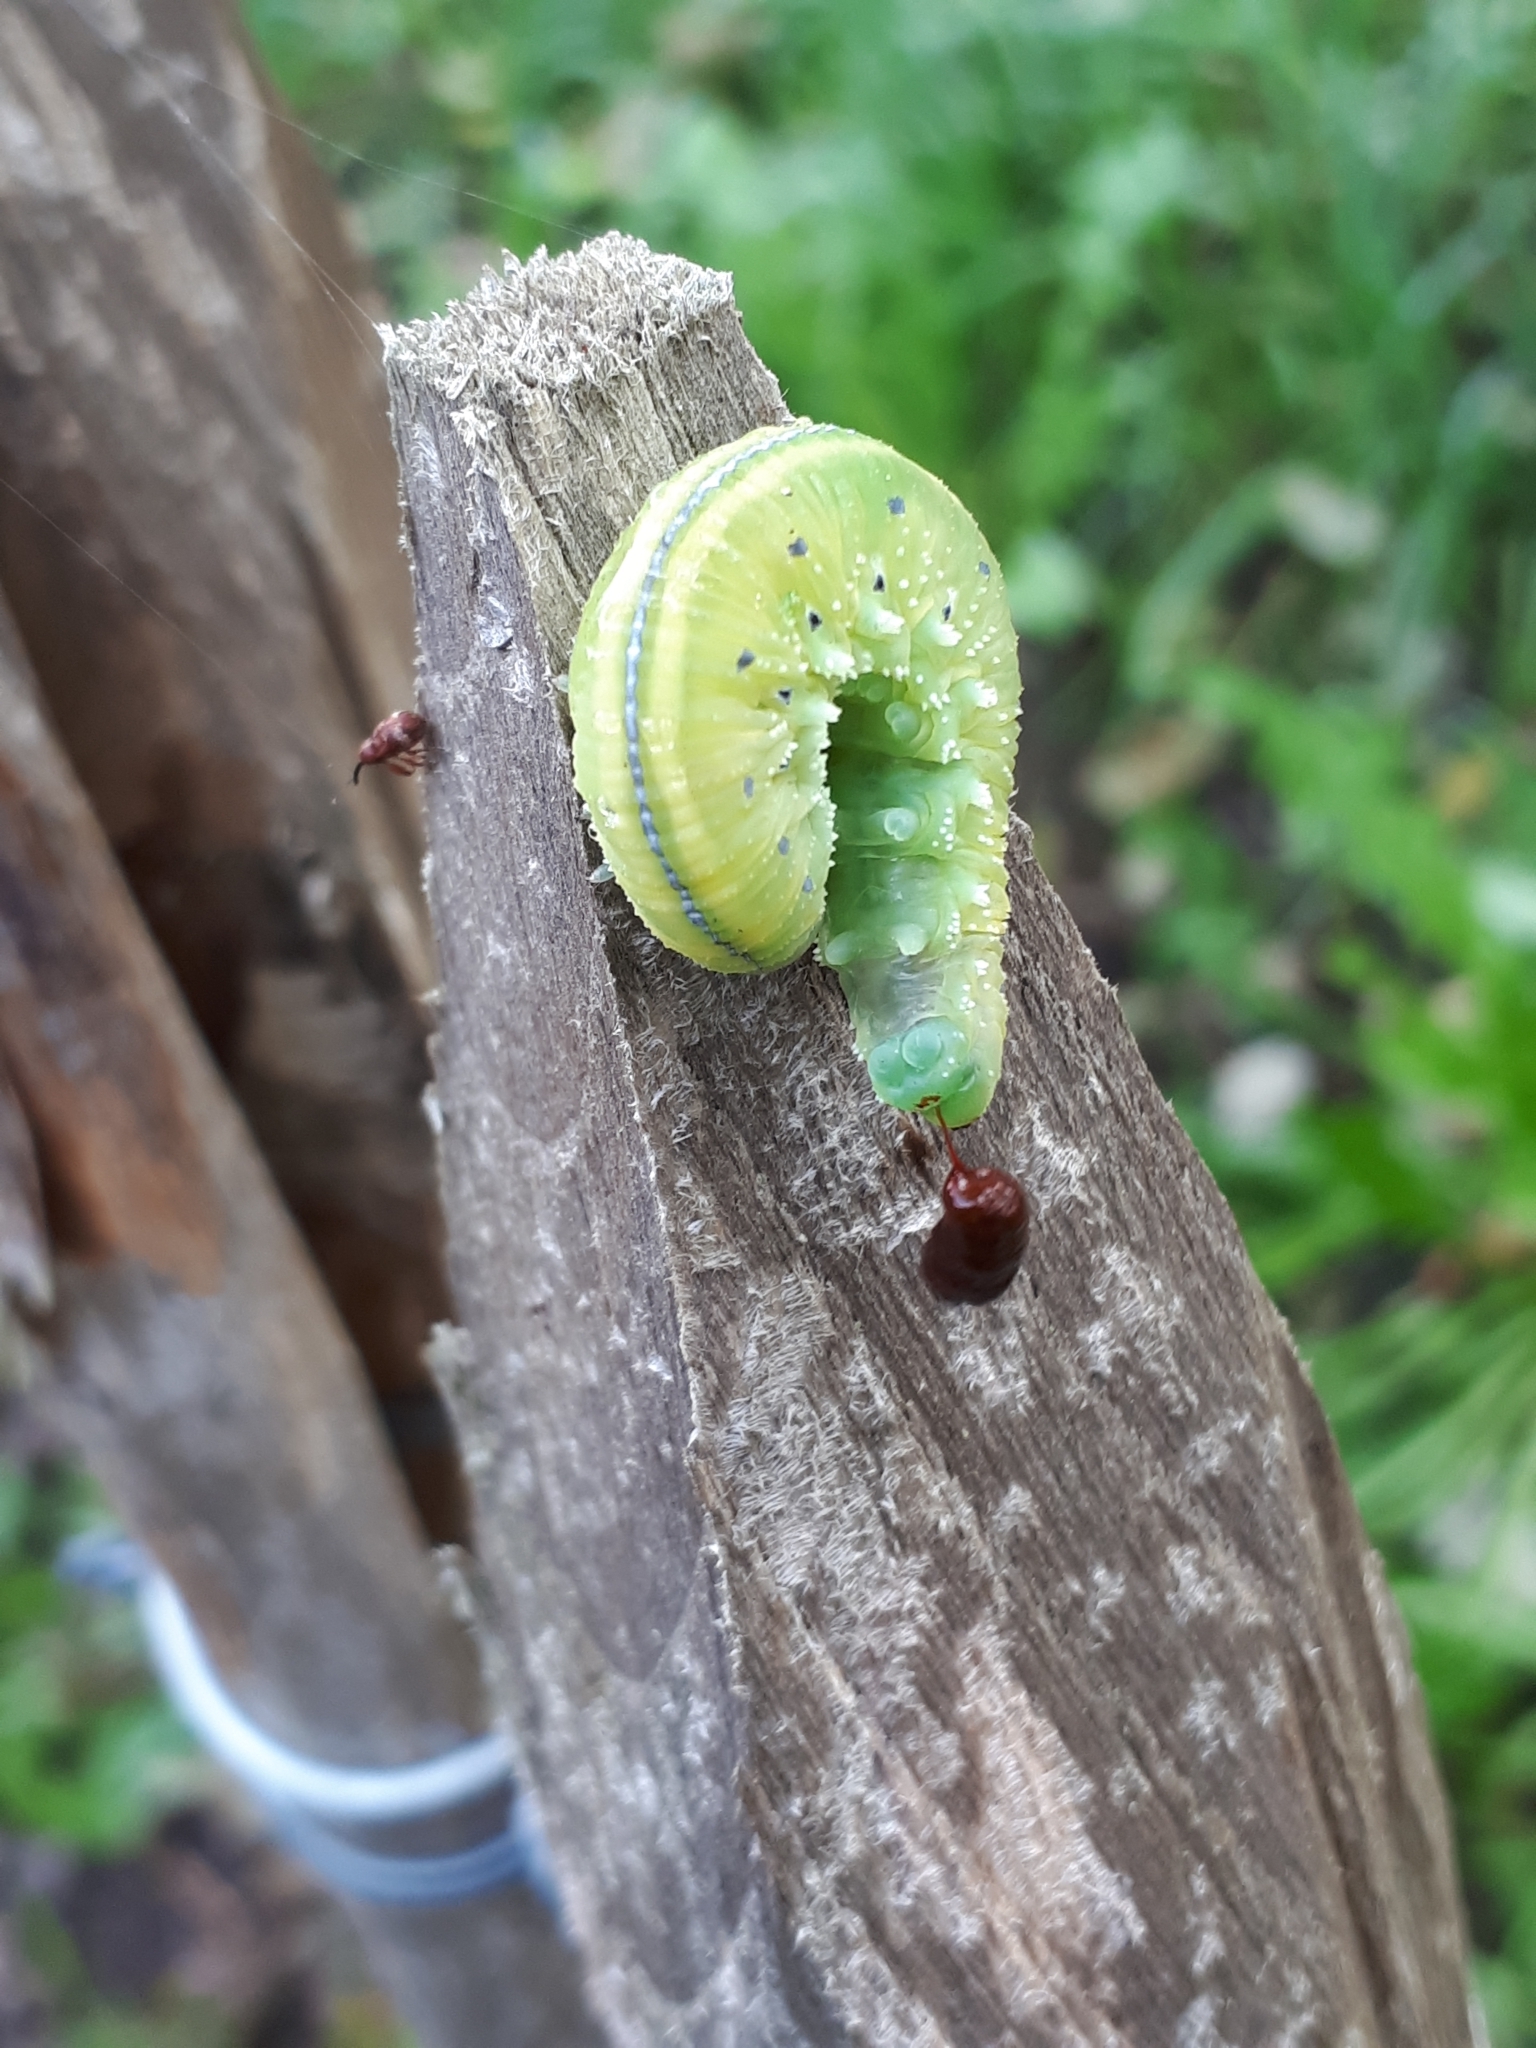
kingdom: Animalia
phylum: Arthropoda
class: Insecta
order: Hymenoptera
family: Cimbicidae
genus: Cimbex
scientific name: Cimbex connatus
